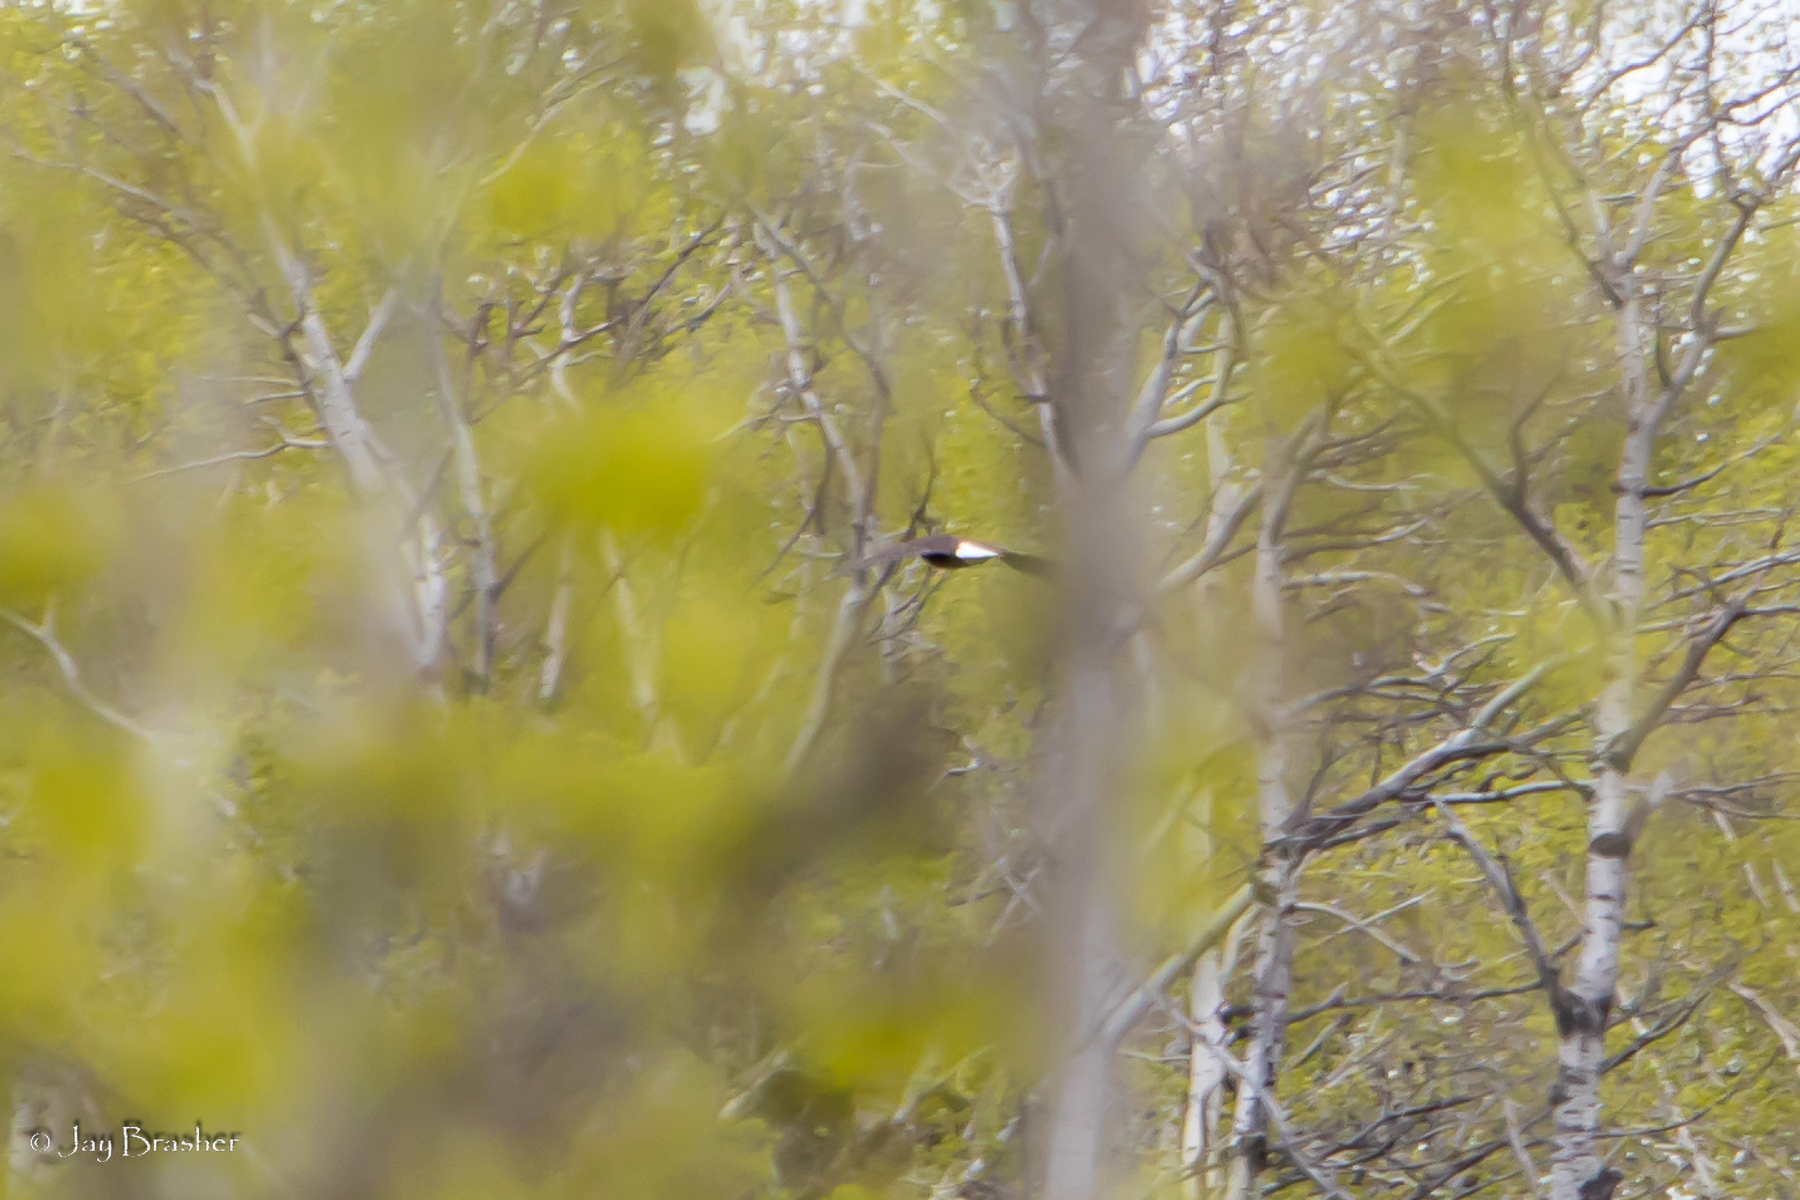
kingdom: Animalia
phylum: Chordata
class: Aves
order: Accipitriformes
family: Accipitridae
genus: Haliaeetus
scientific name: Haliaeetus leucocephalus
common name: Bald eagle
